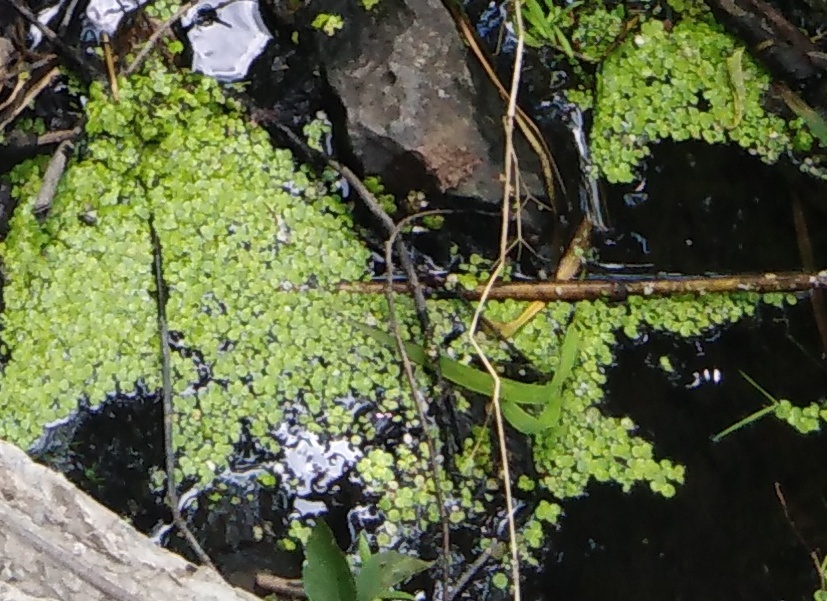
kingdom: Plantae
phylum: Tracheophyta
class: Liliopsida
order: Alismatales
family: Araceae
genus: Lemna
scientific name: Lemna minor
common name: Common duckweed
